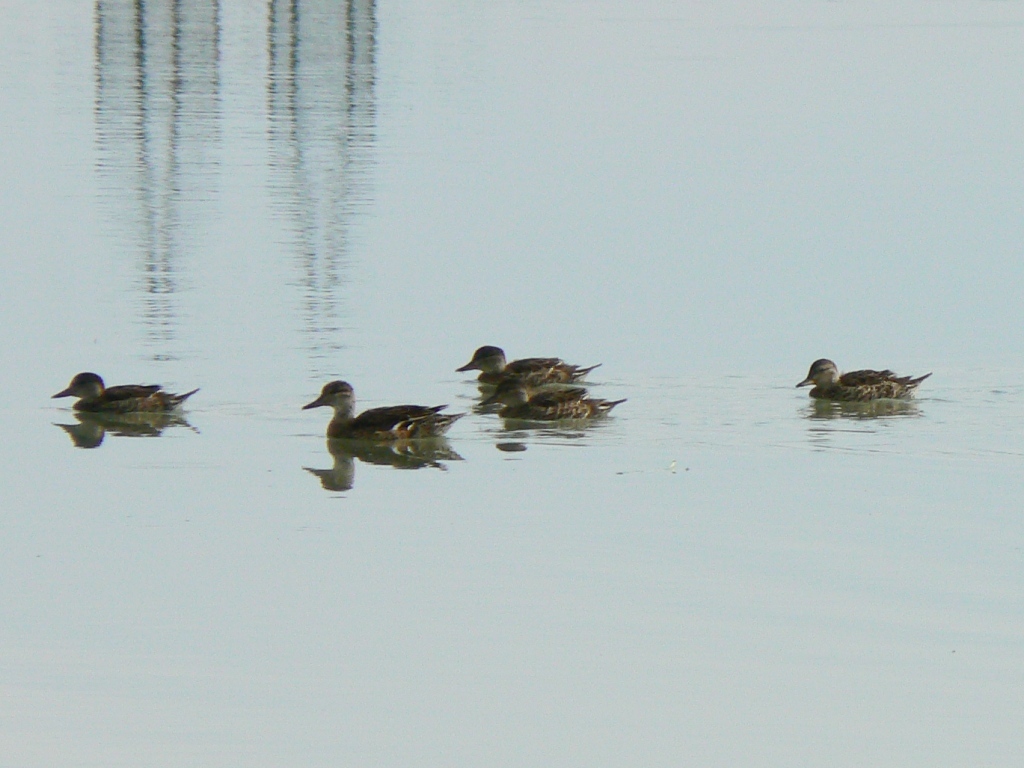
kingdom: Animalia
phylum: Chordata
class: Aves
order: Anseriformes
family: Anatidae
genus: Anas
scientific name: Anas crecca
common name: Eurasian teal
